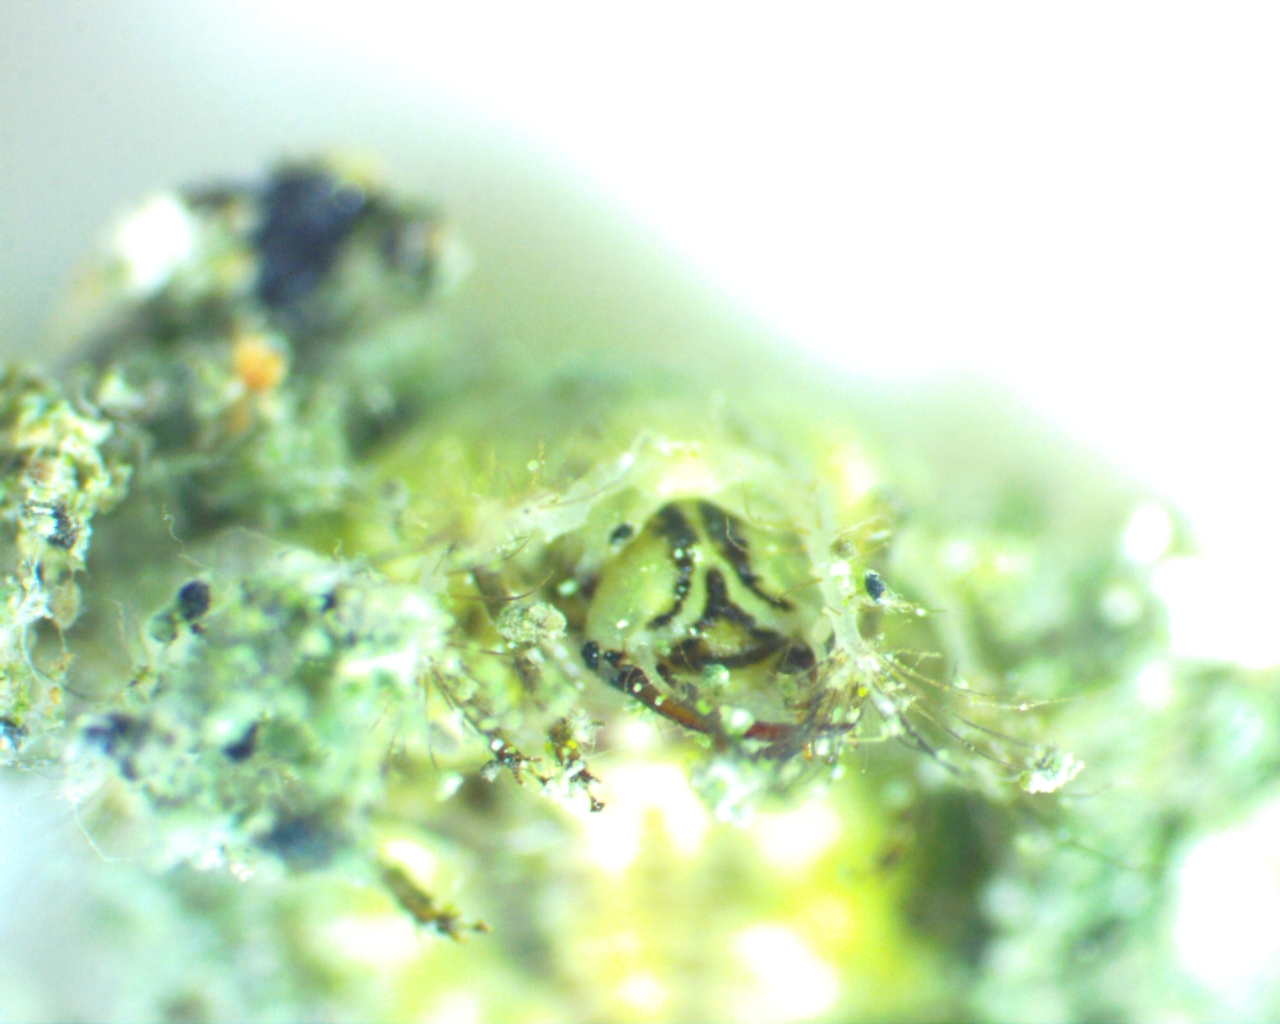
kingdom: Animalia
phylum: Arthropoda
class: Insecta
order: Neuroptera
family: Chrysopidae
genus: Leucochrysa
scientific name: Leucochrysa pavida
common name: Lichen-carrying green lacewing
